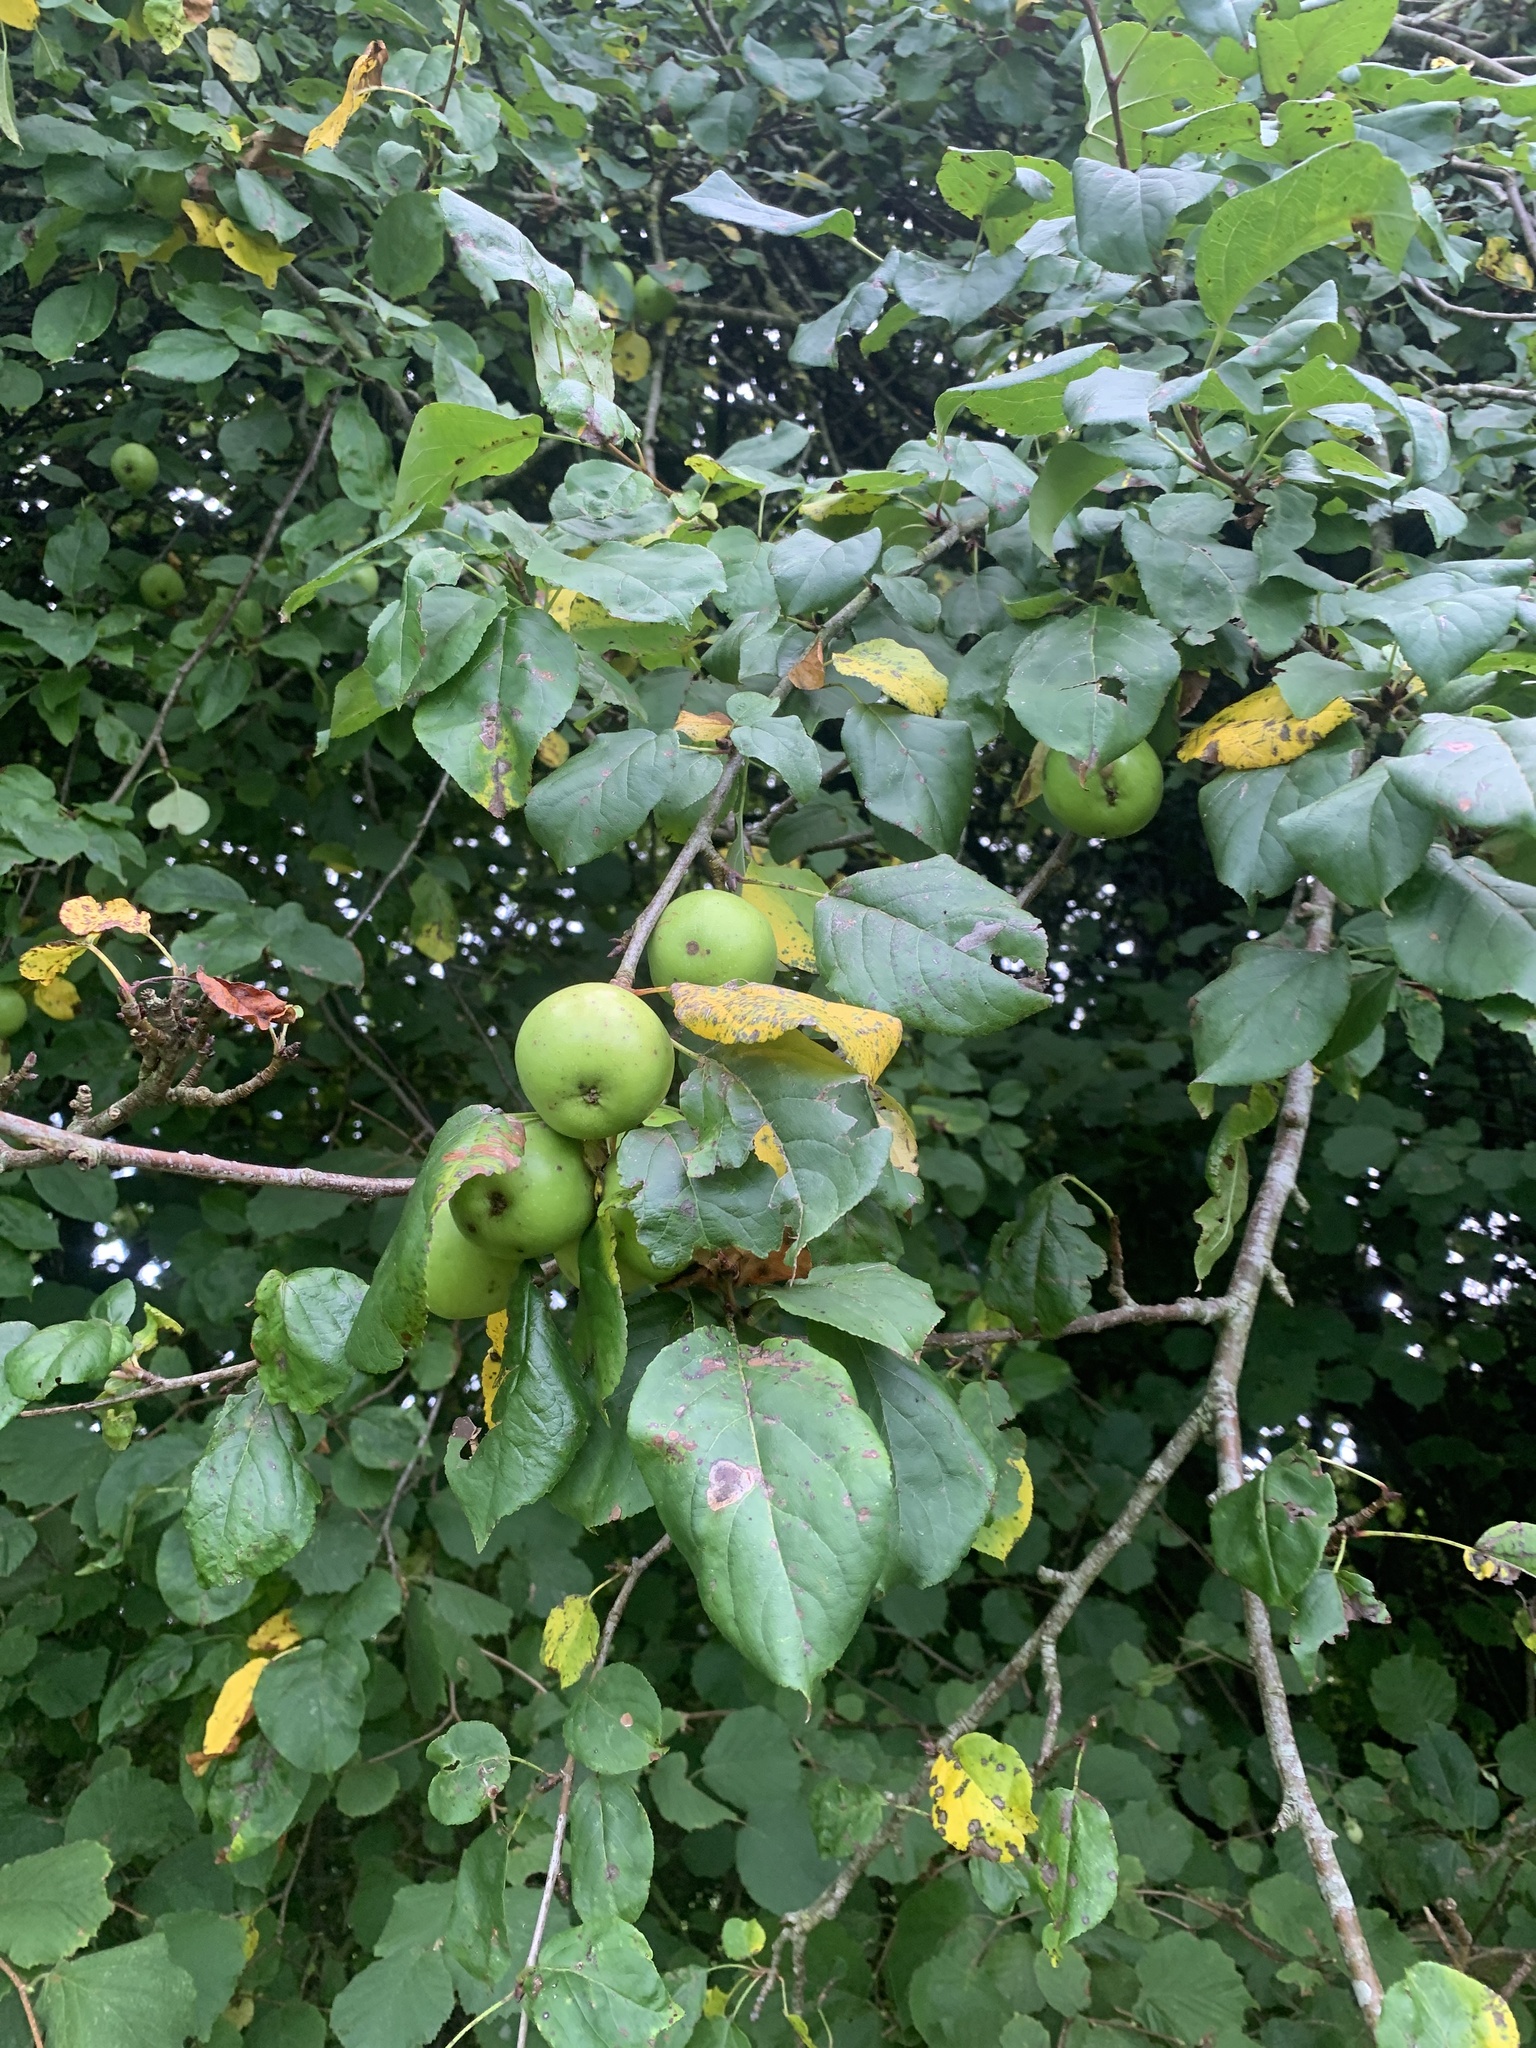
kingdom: Plantae
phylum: Tracheophyta
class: Magnoliopsida
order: Rosales
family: Rosaceae
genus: Malus
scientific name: Malus domestica
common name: Apple
